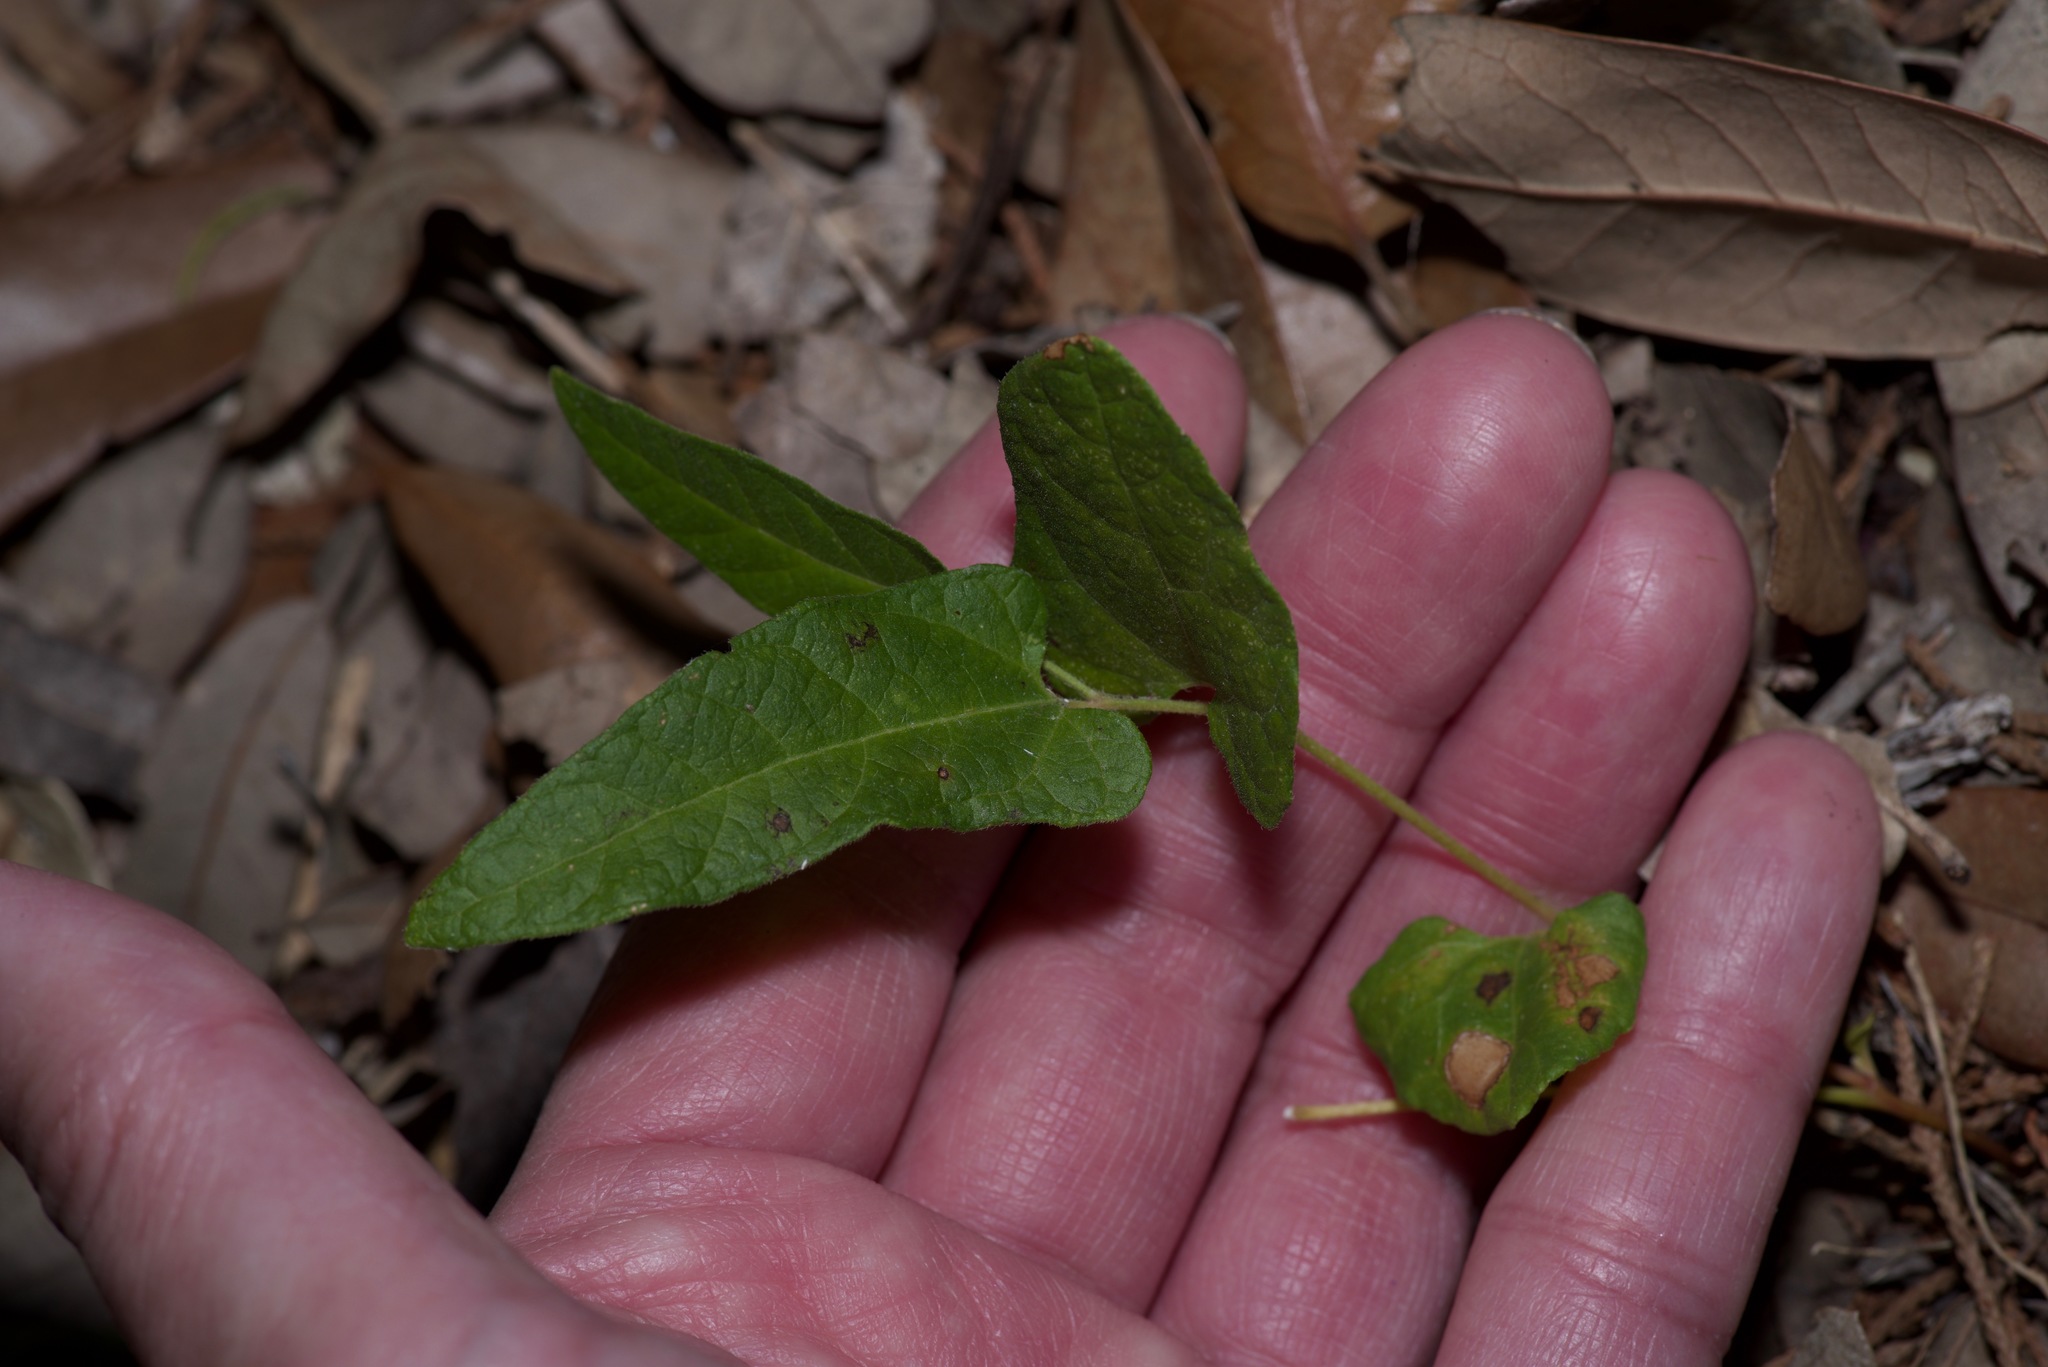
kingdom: Plantae
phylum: Tracheophyta
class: Magnoliopsida
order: Piperales
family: Aristolochiaceae
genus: Endodeca
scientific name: Endodeca serpentaria
